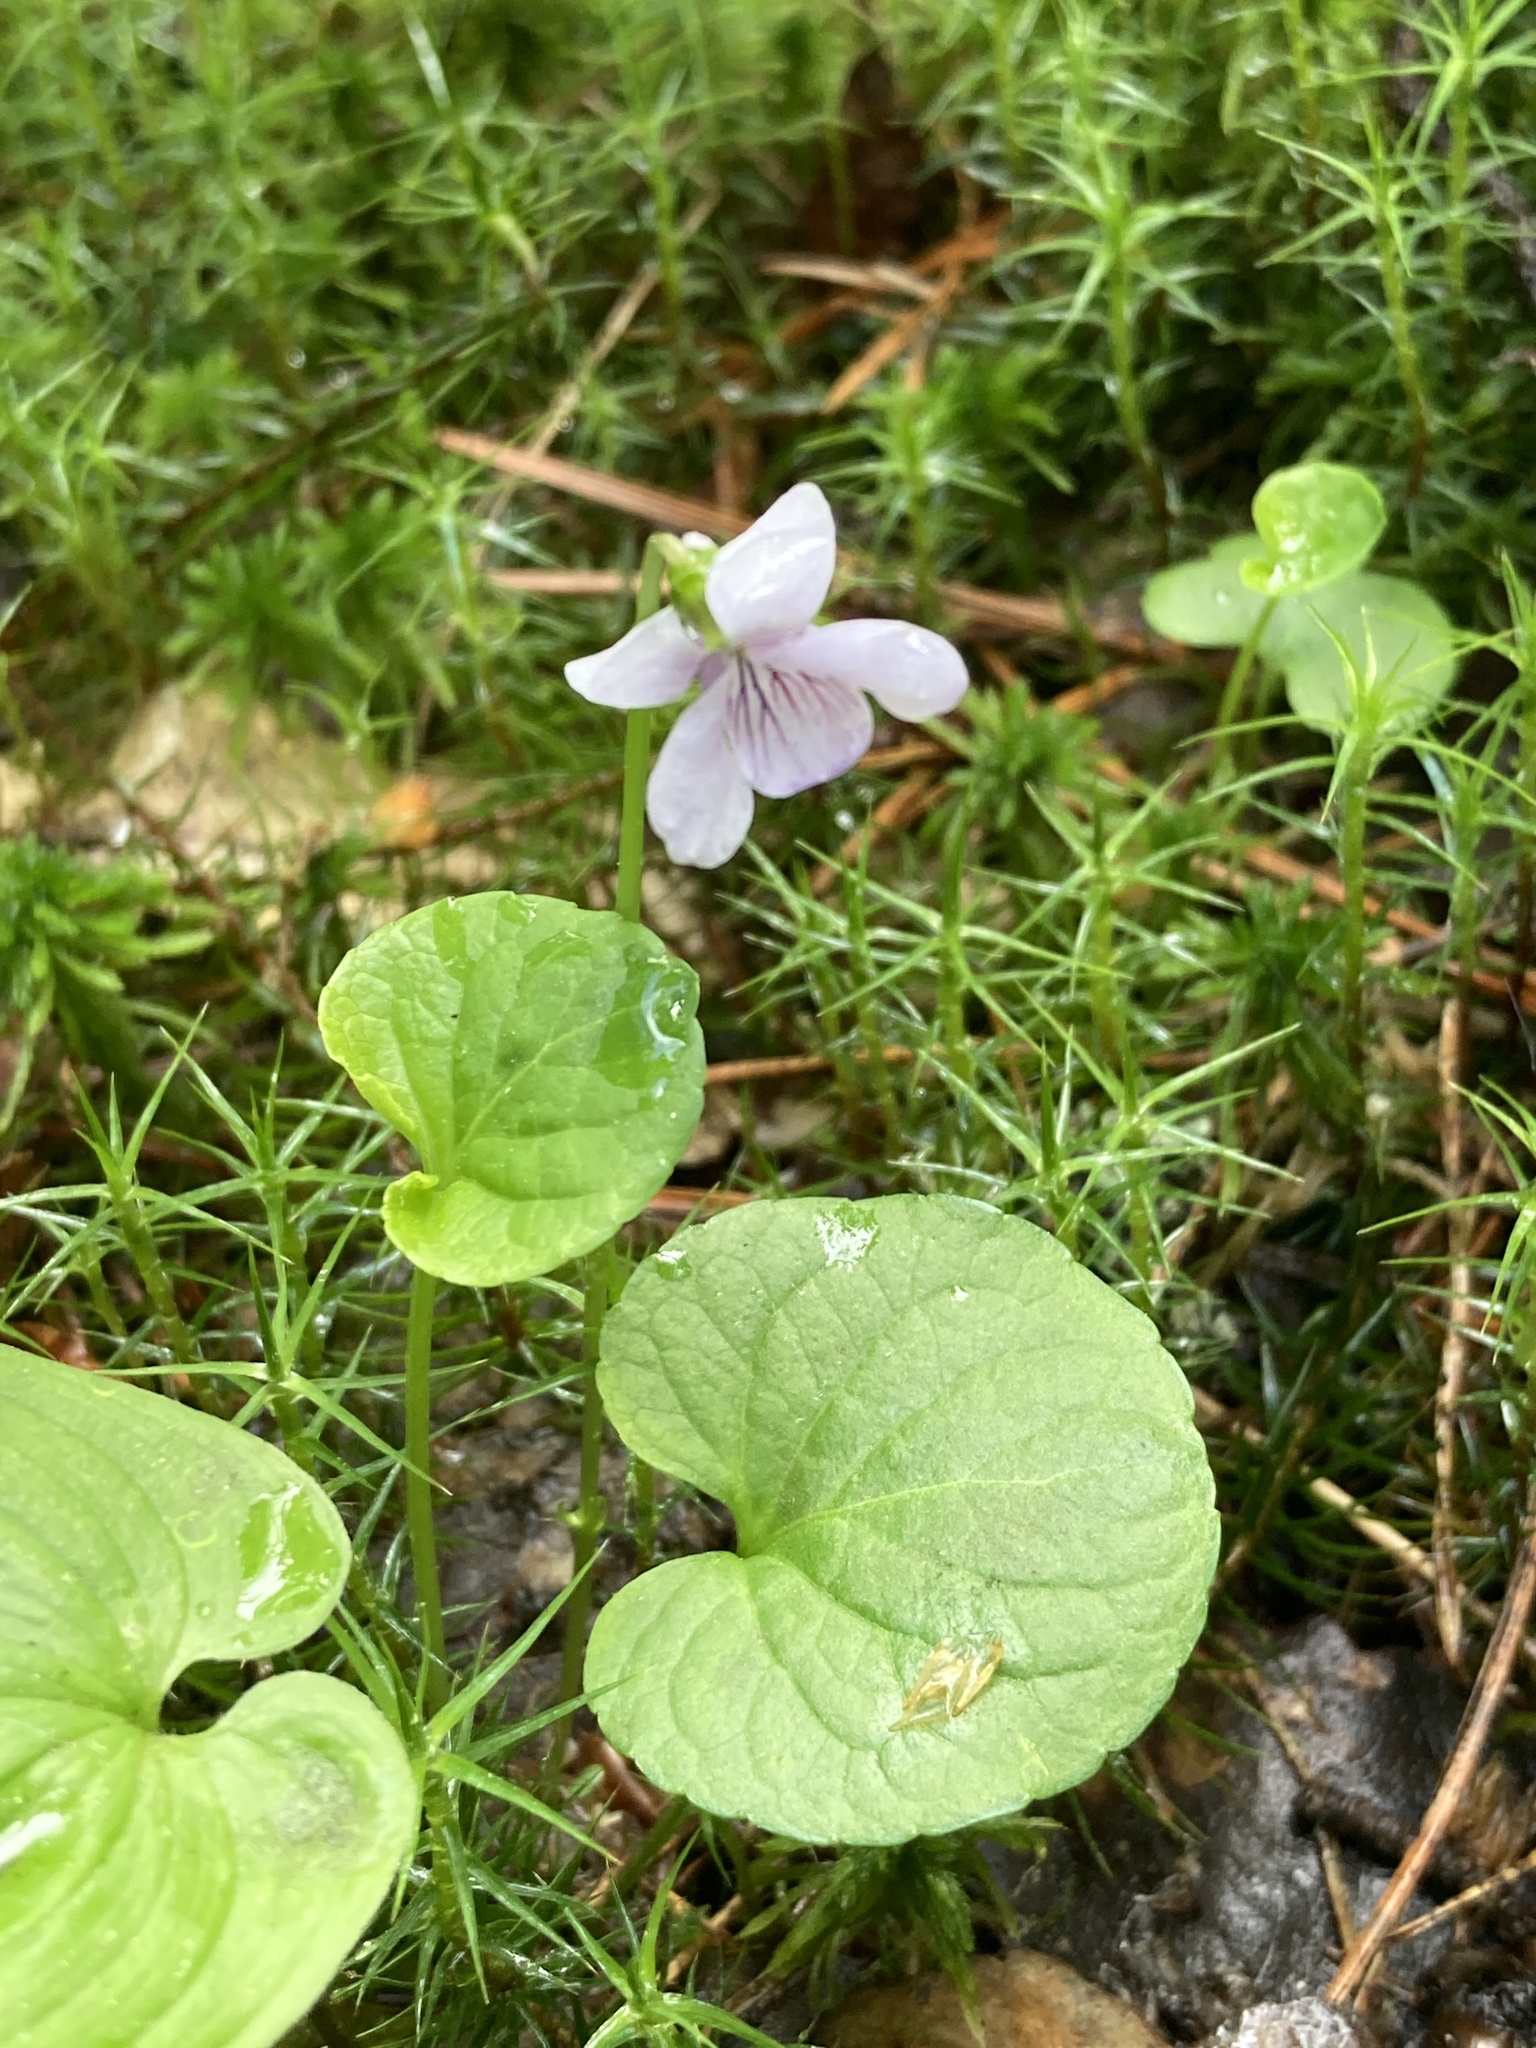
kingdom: Plantae
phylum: Tracheophyta
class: Magnoliopsida
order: Malpighiales
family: Violaceae
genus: Viola
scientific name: Viola palustris
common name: Marsh violet
